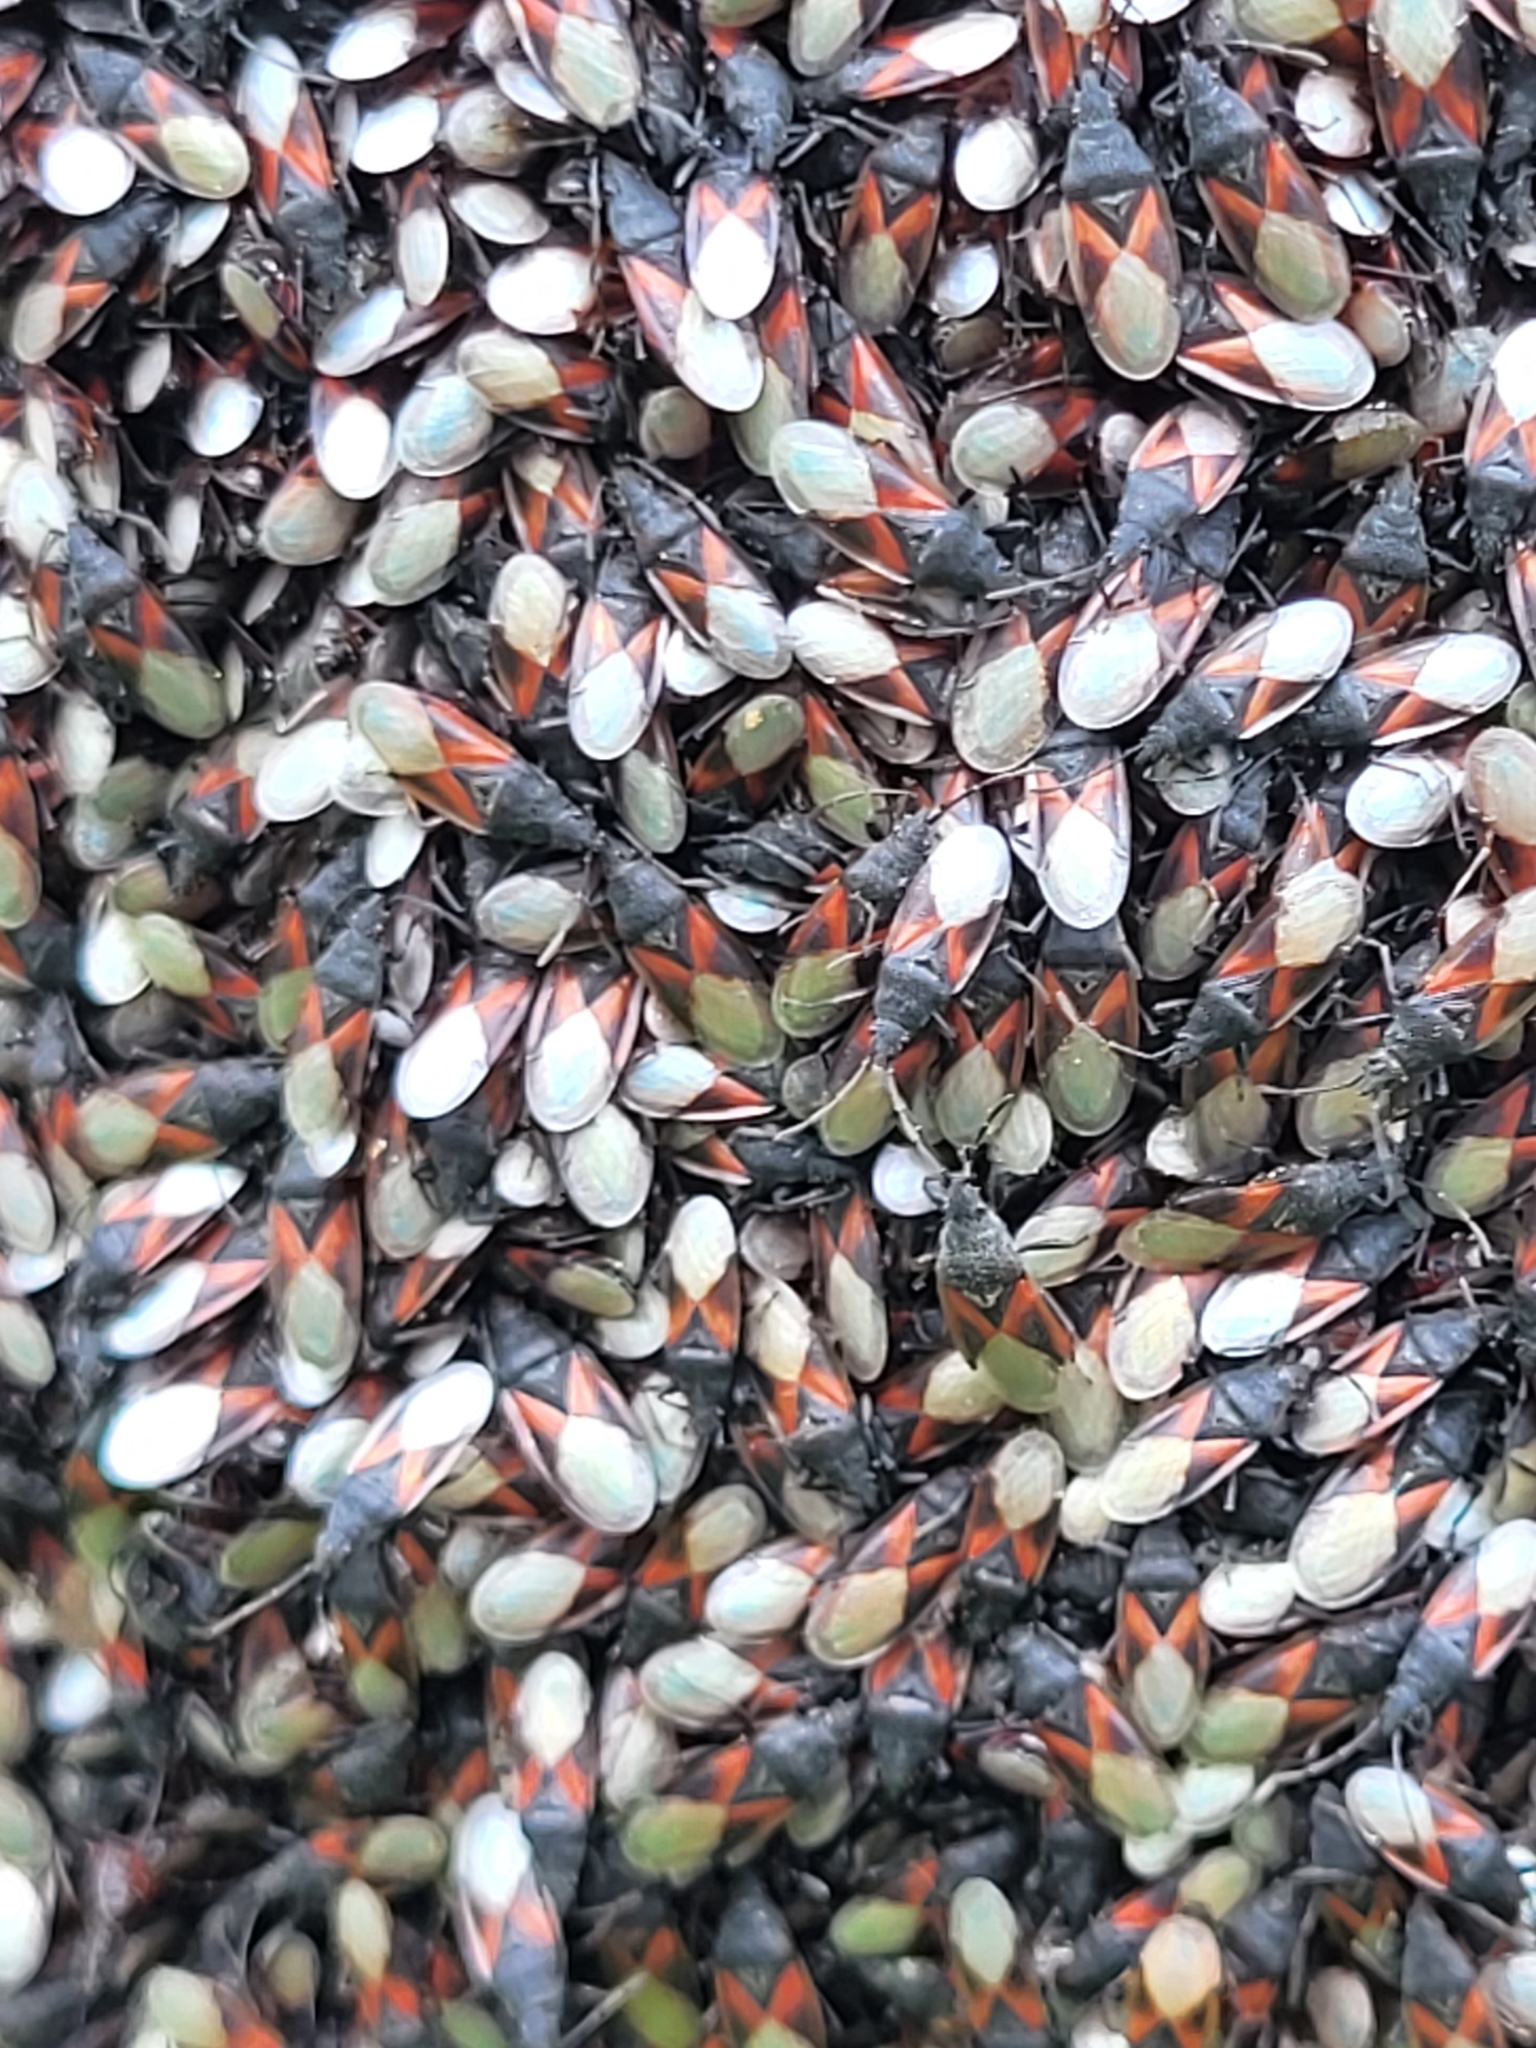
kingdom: Animalia
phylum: Arthropoda
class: Insecta
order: Hemiptera
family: Oxycarenidae
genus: Oxycarenus
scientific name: Oxycarenus lavaterae
